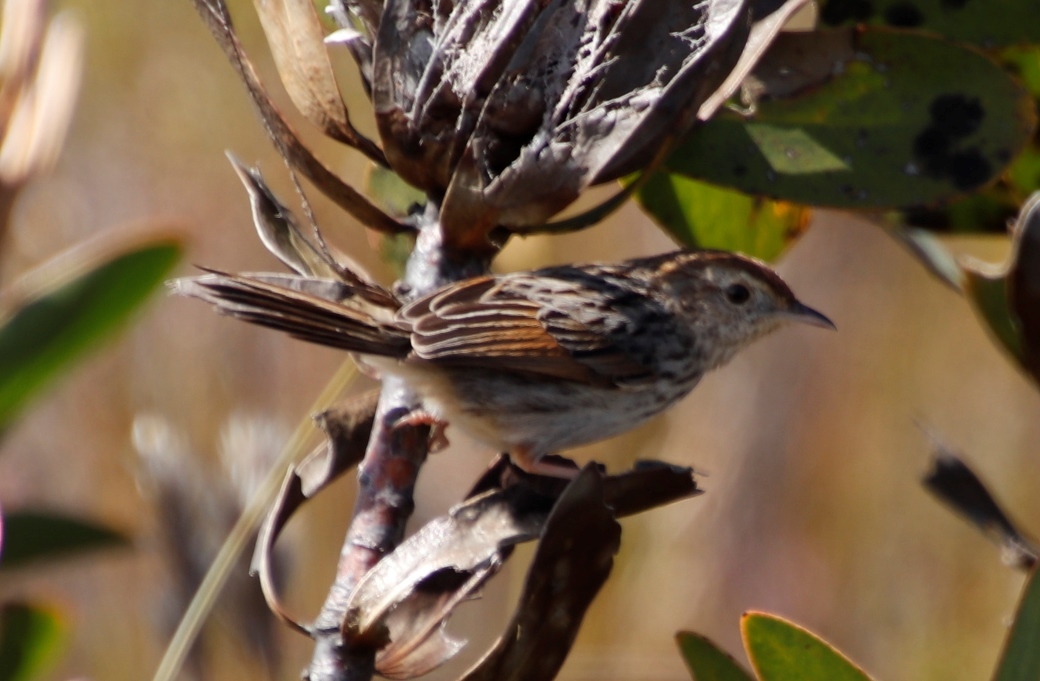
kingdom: Animalia
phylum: Chordata
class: Aves
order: Passeriformes
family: Cisticolidae
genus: Cisticola
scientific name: Cisticola subruficapilla
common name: Grey-backed cisticola
